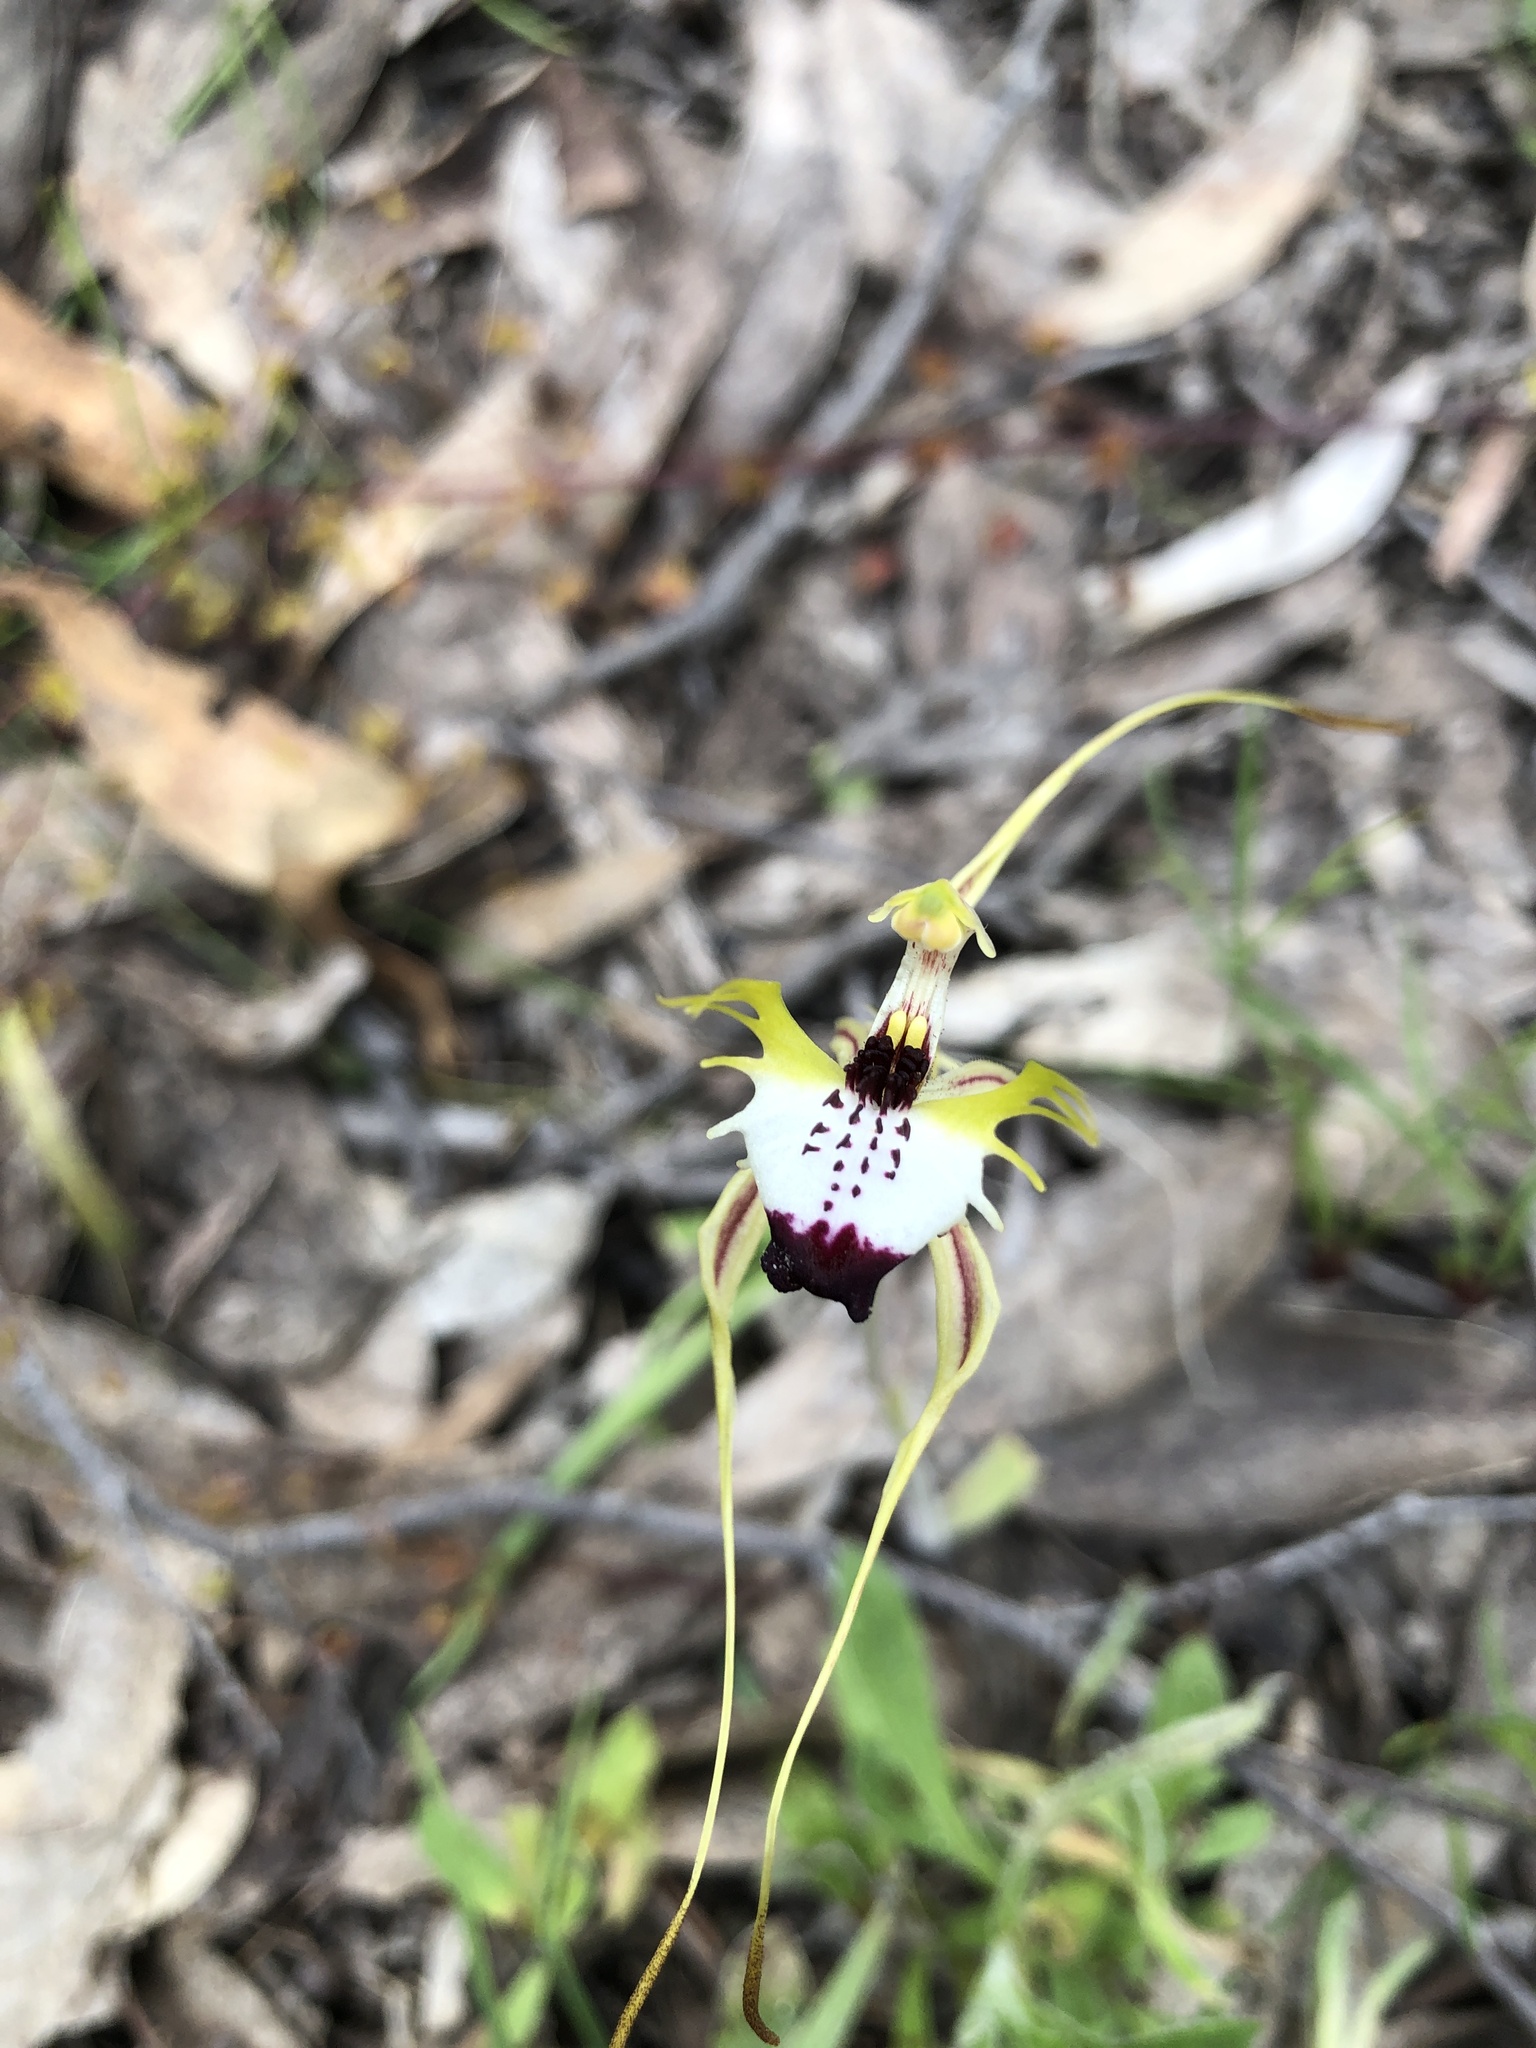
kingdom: Plantae
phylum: Tracheophyta
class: Liliopsida
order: Asparagales
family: Orchidaceae
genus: Caladenia
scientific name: Caladenia tentaculata
